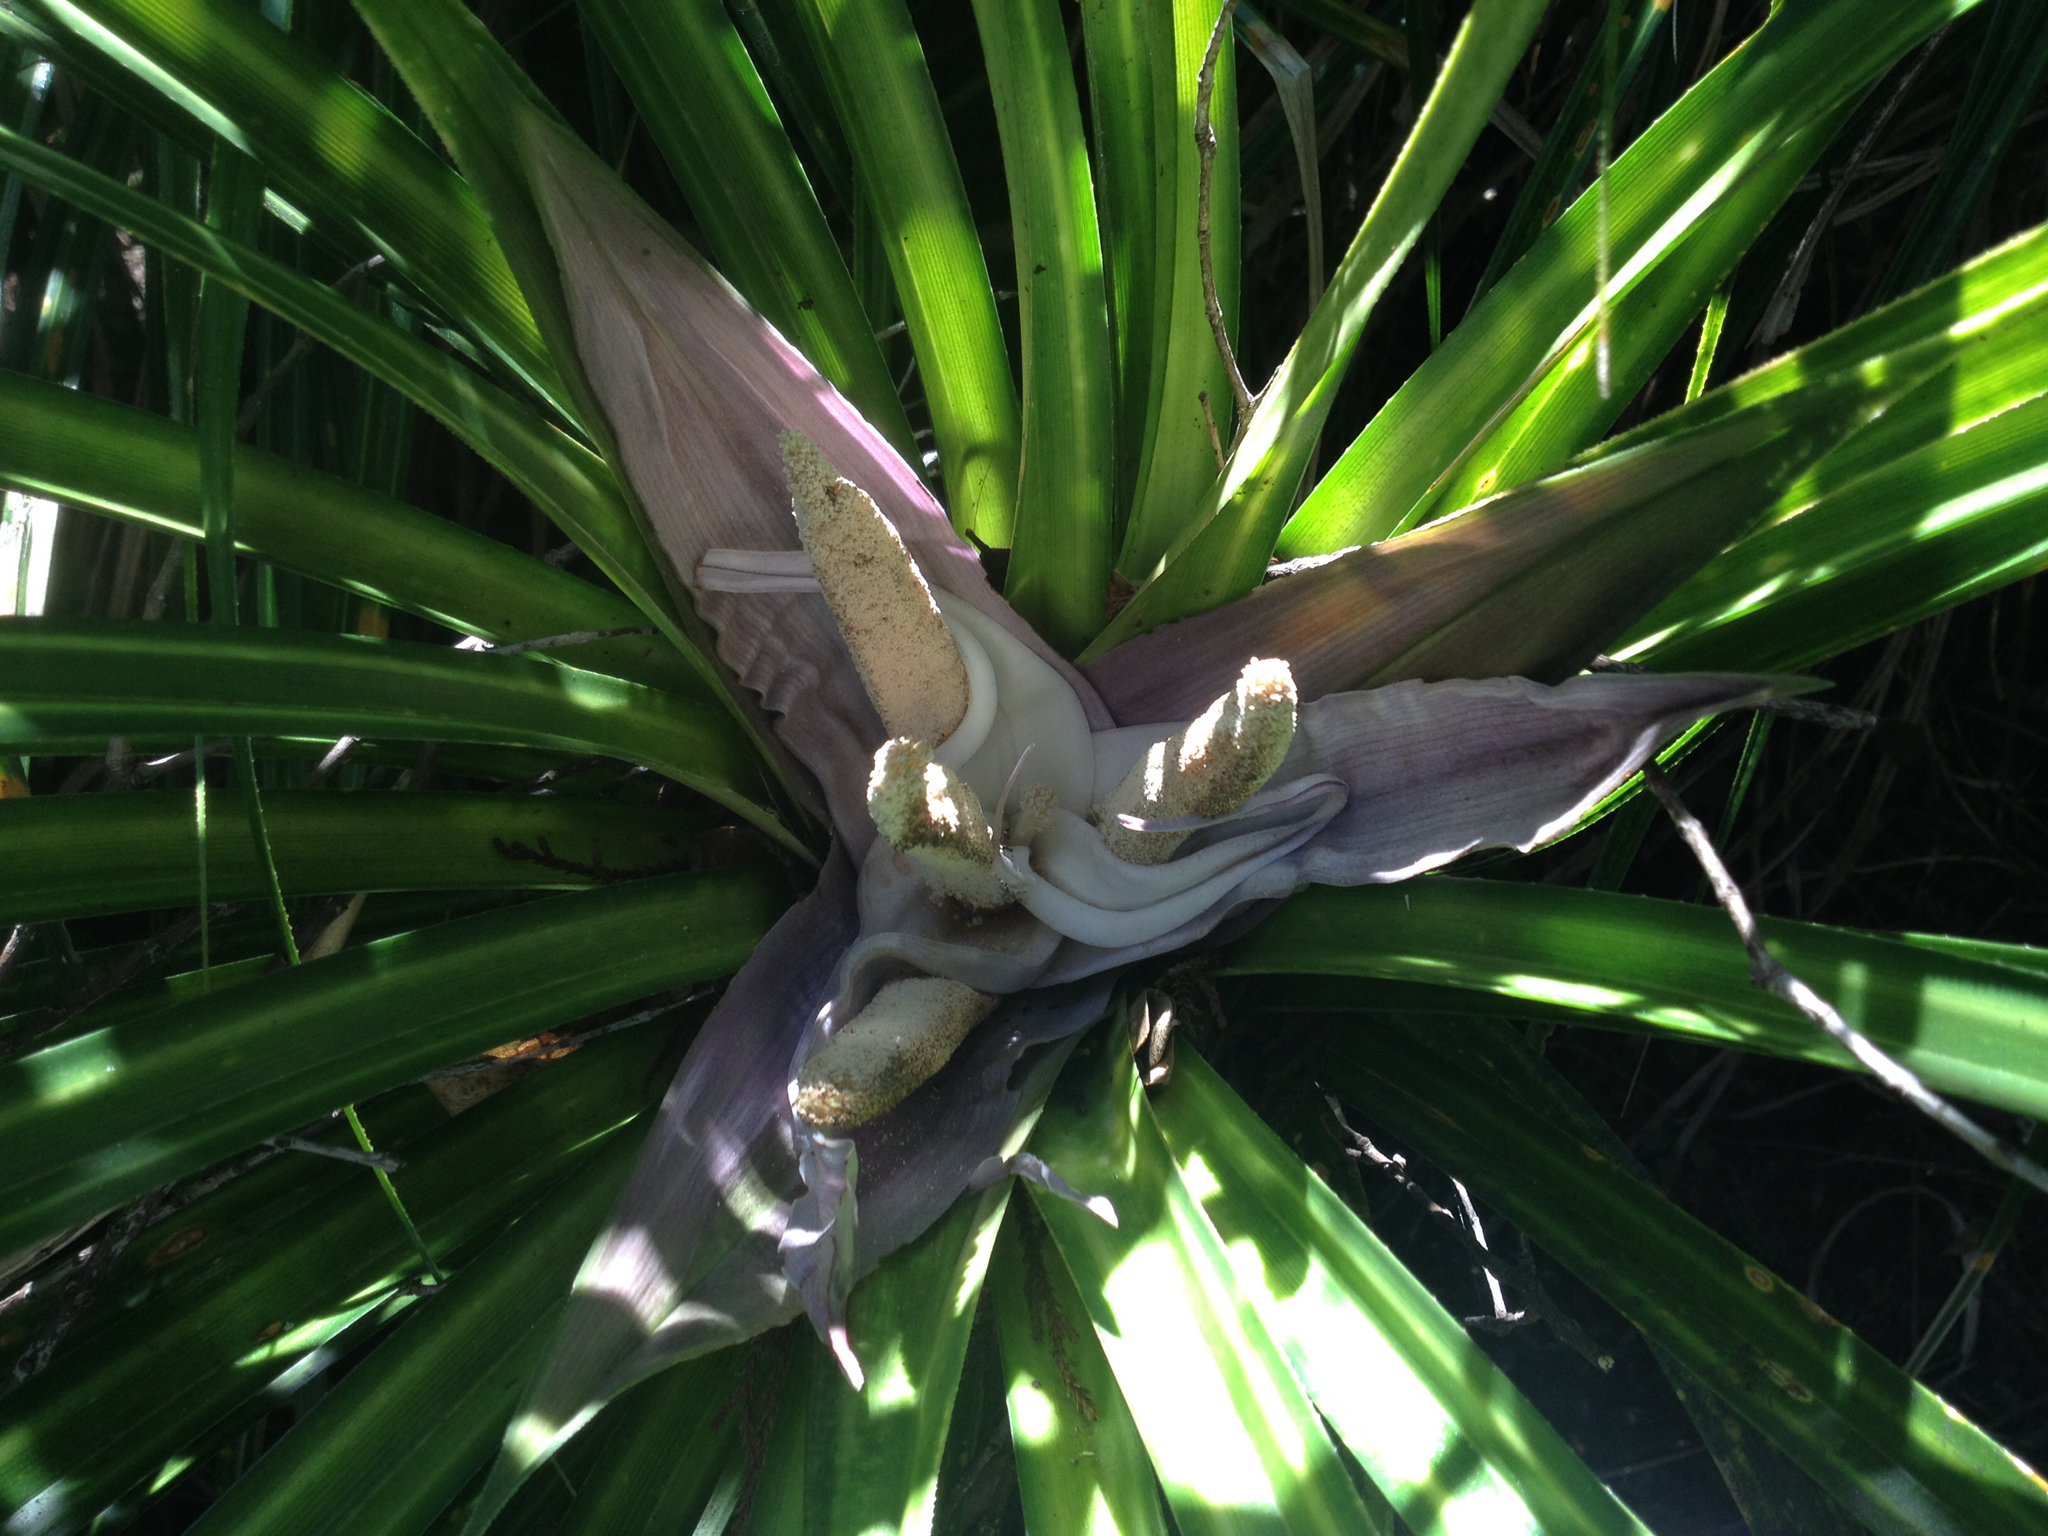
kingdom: Plantae
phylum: Tracheophyta
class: Liliopsida
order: Pandanales
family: Pandanaceae
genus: Freycinetia
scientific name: Freycinetia banksii
